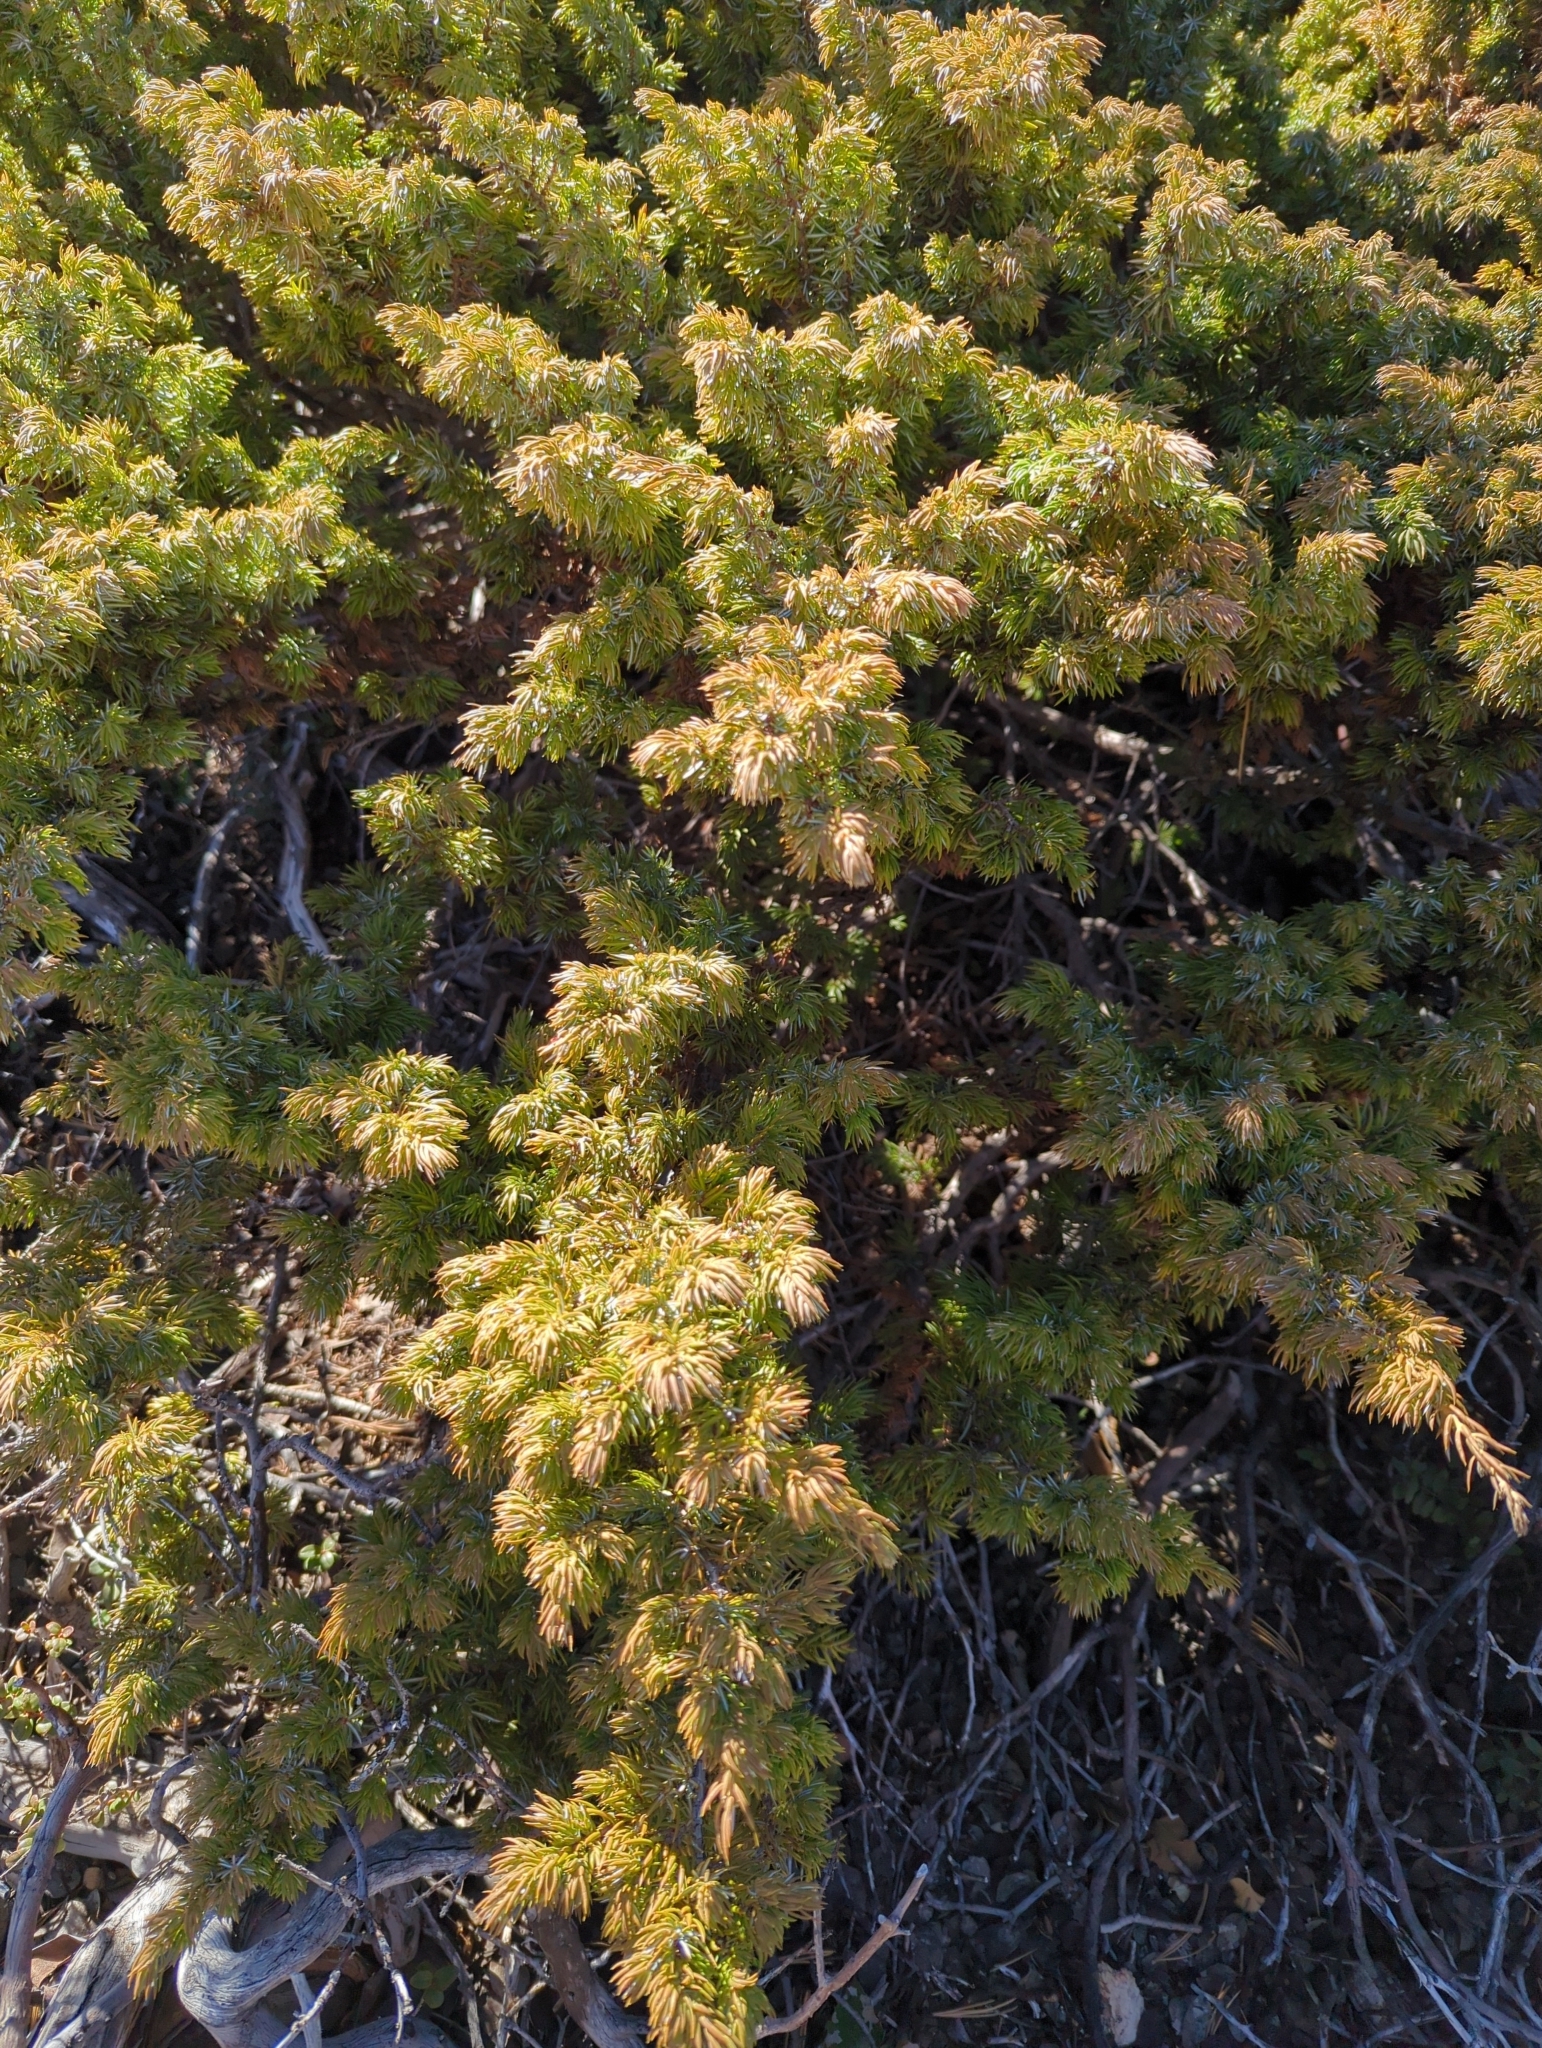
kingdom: Plantae
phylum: Tracheophyta
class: Pinopsida
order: Pinales
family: Cupressaceae
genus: Juniperus
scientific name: Juniperus communis
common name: Common juniper
